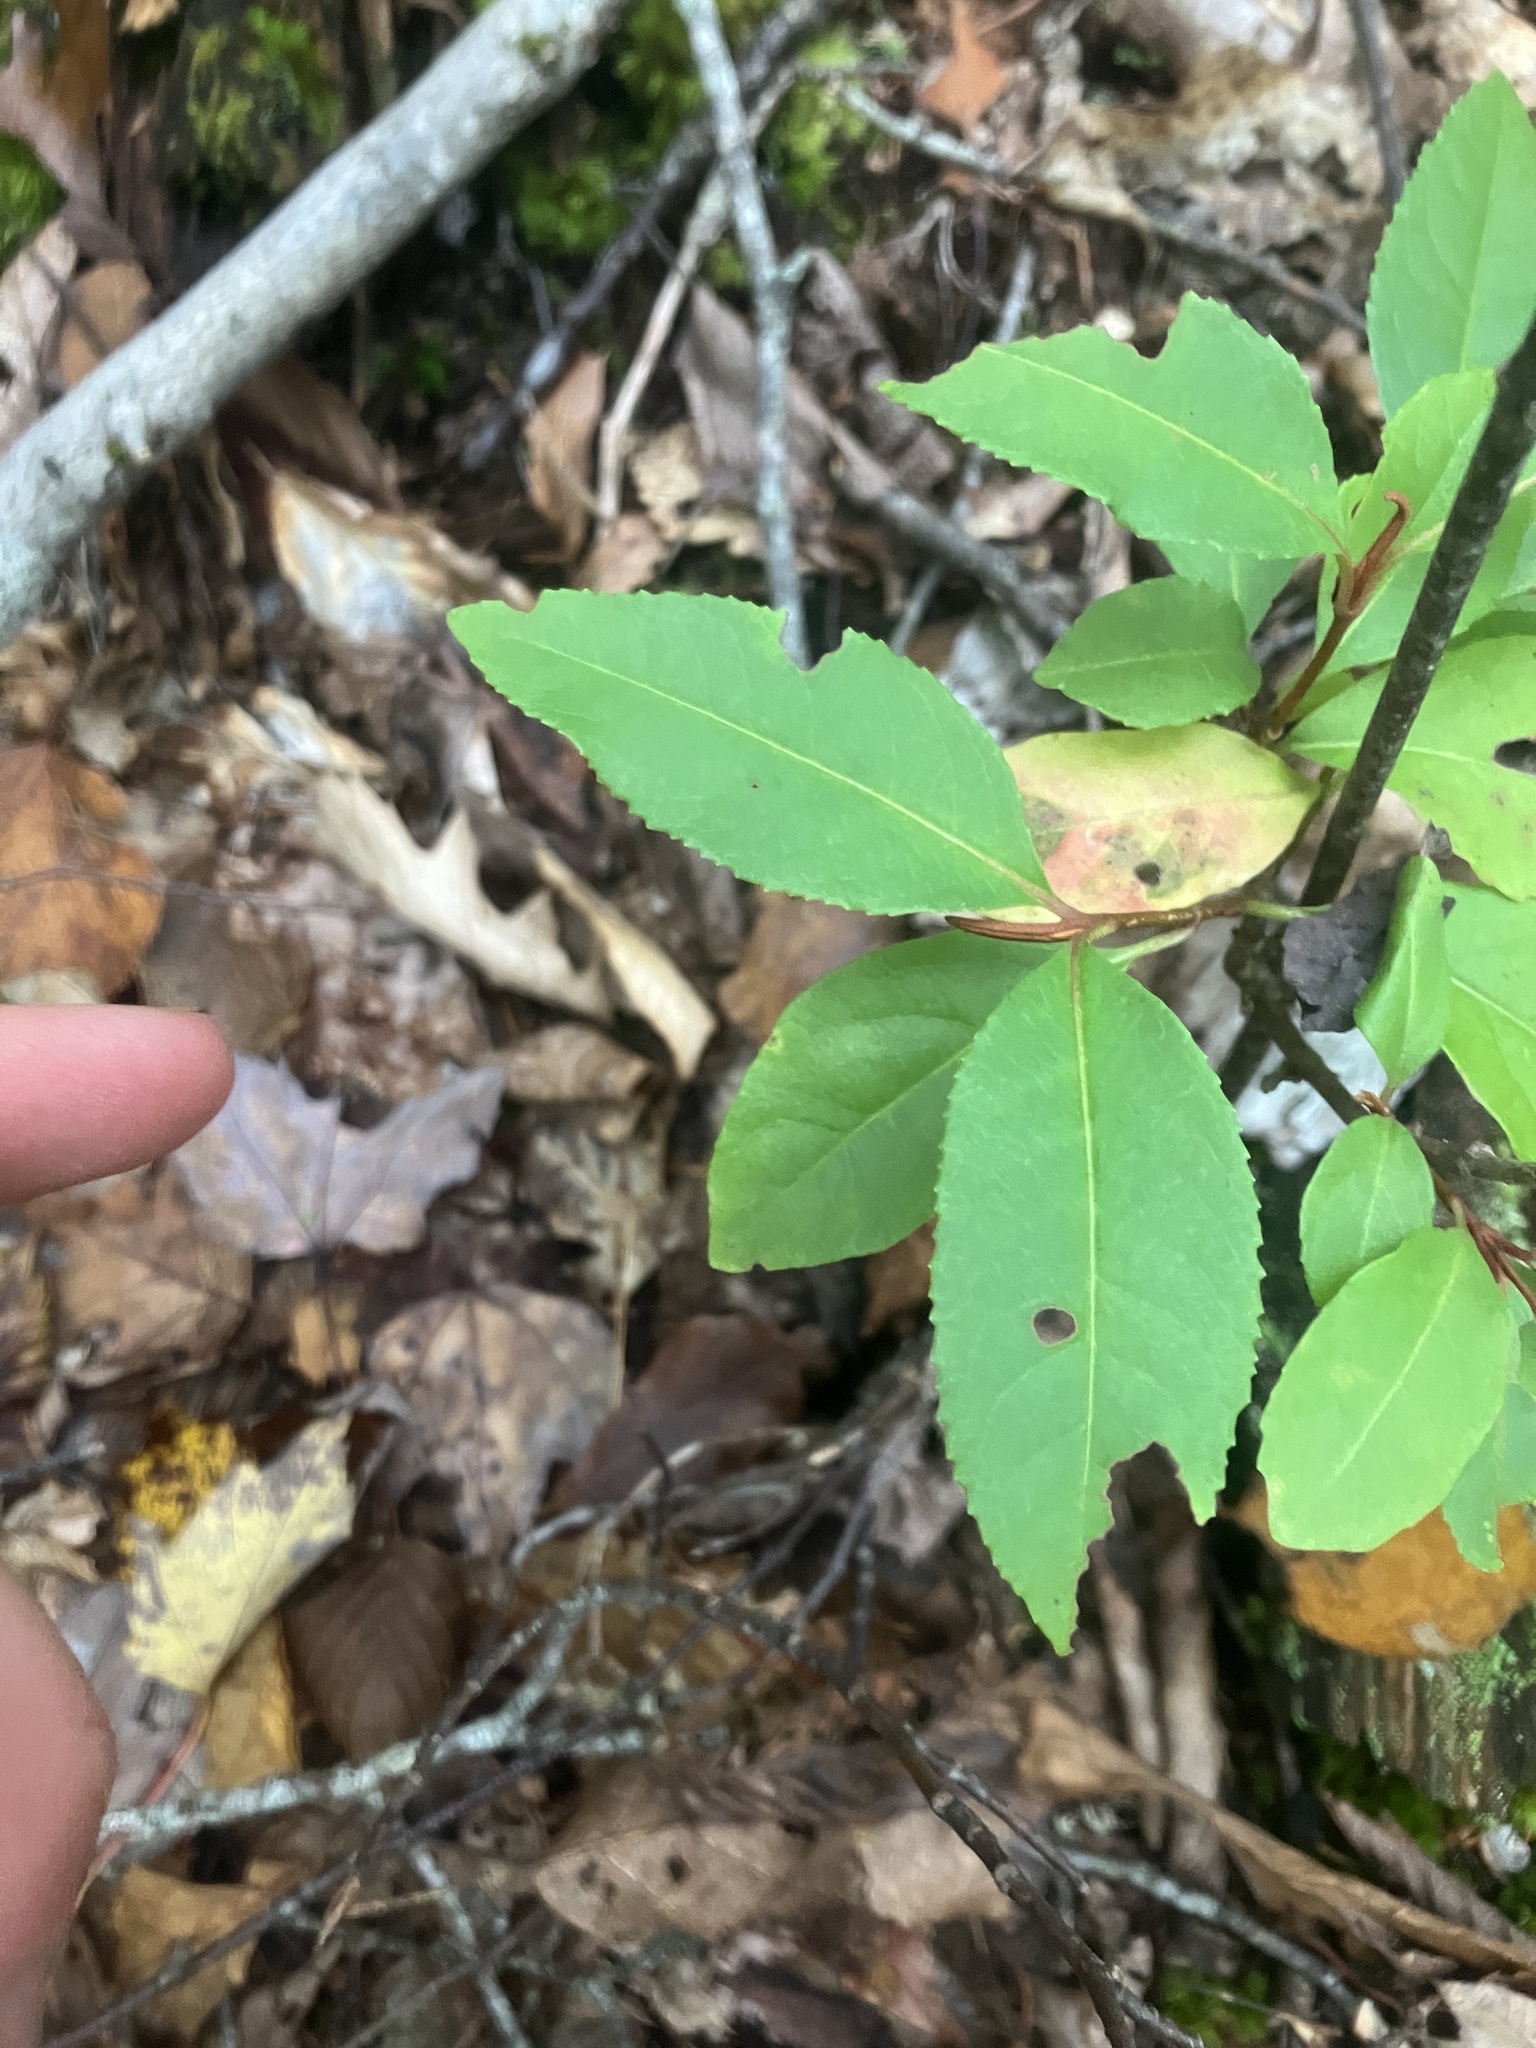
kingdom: Plantae
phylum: Tracheophyta
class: Magnoliopsida
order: Dipsacales
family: Viburnaceae
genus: Viburnum
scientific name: Viburnum cassinoides
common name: Swamp haw
